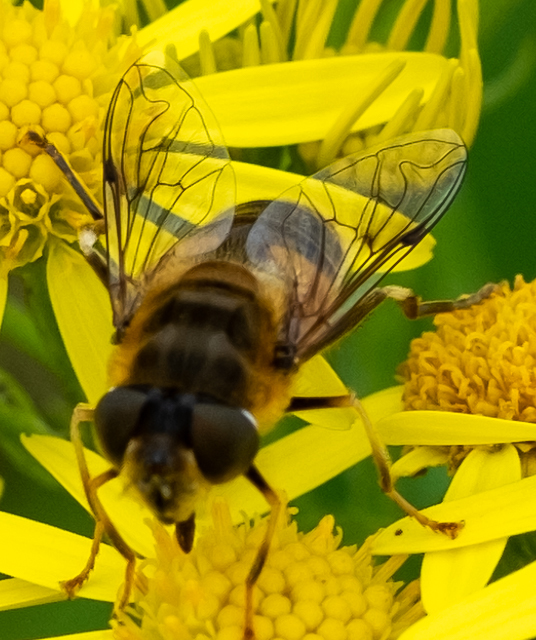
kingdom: Animalia
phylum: Arthropoda
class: Insecta
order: Diptera
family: Syrphidae
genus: Eristalis
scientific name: Eristalis pertinax
